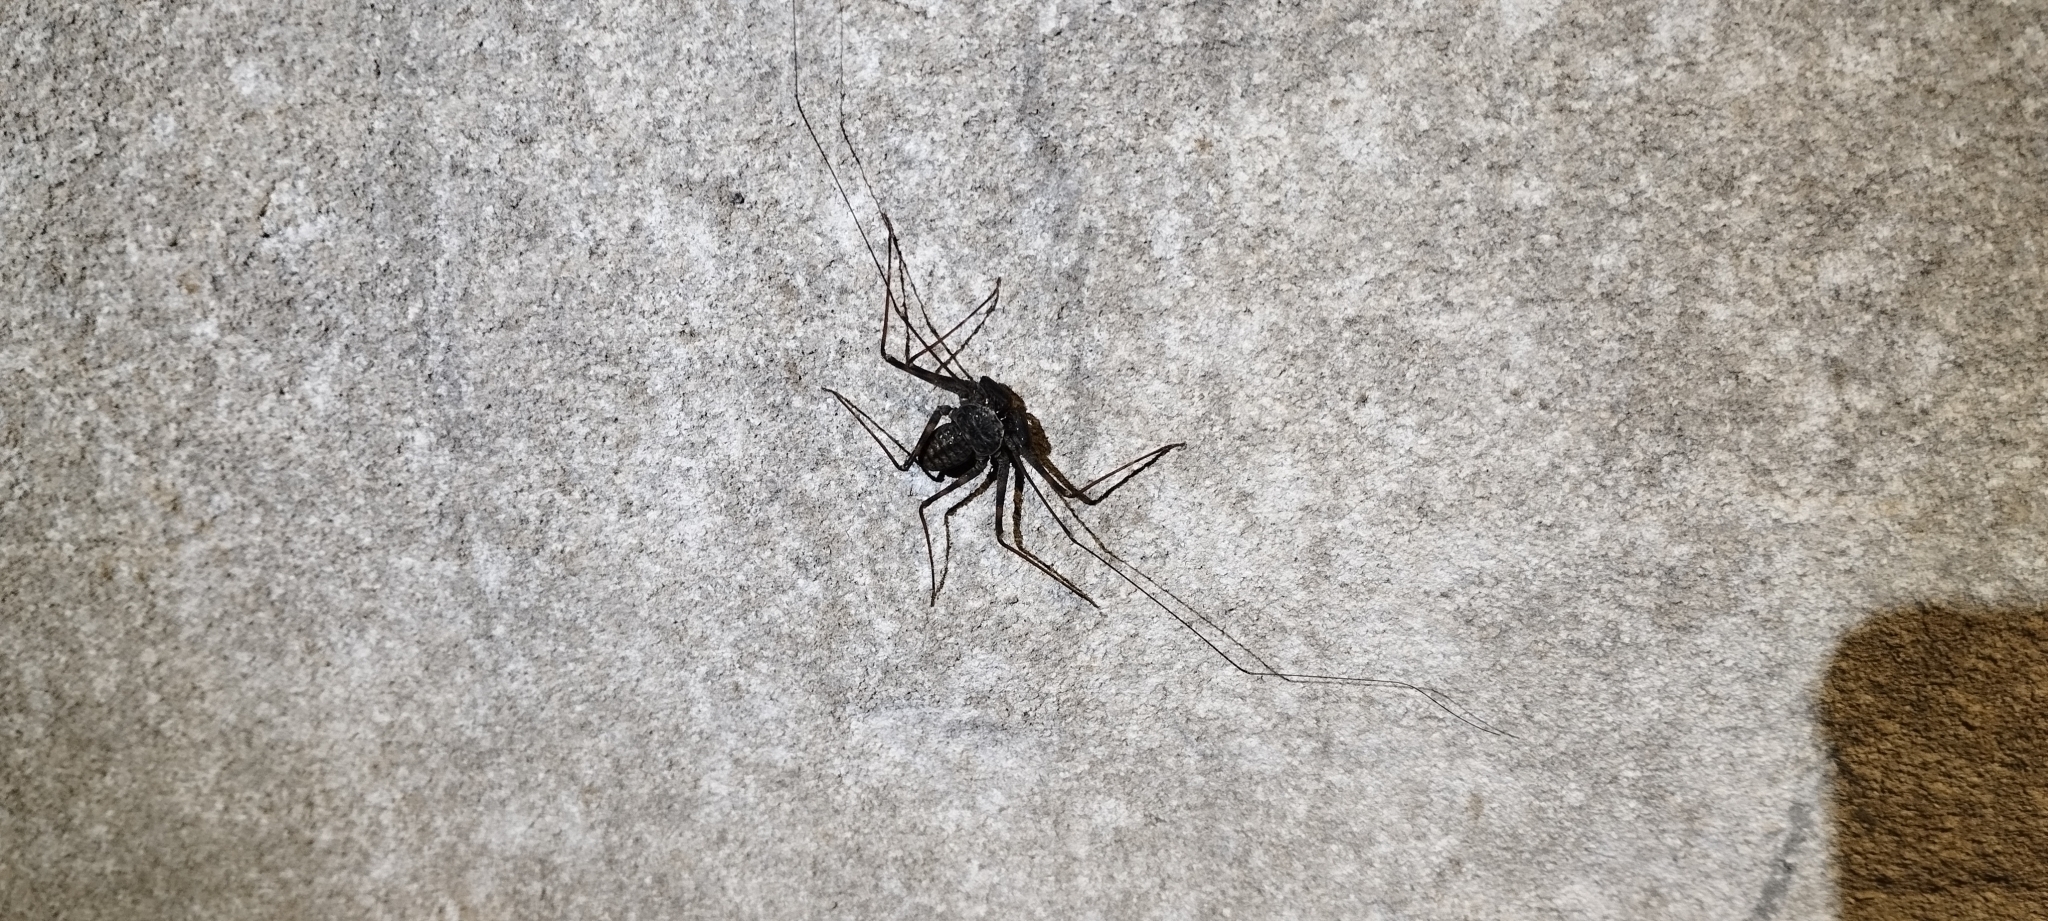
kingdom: Animalia
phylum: Arthropoda
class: Arachnida
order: Amblypygi
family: Phrynidae
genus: Phrynus
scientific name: Phrynus operculatus
